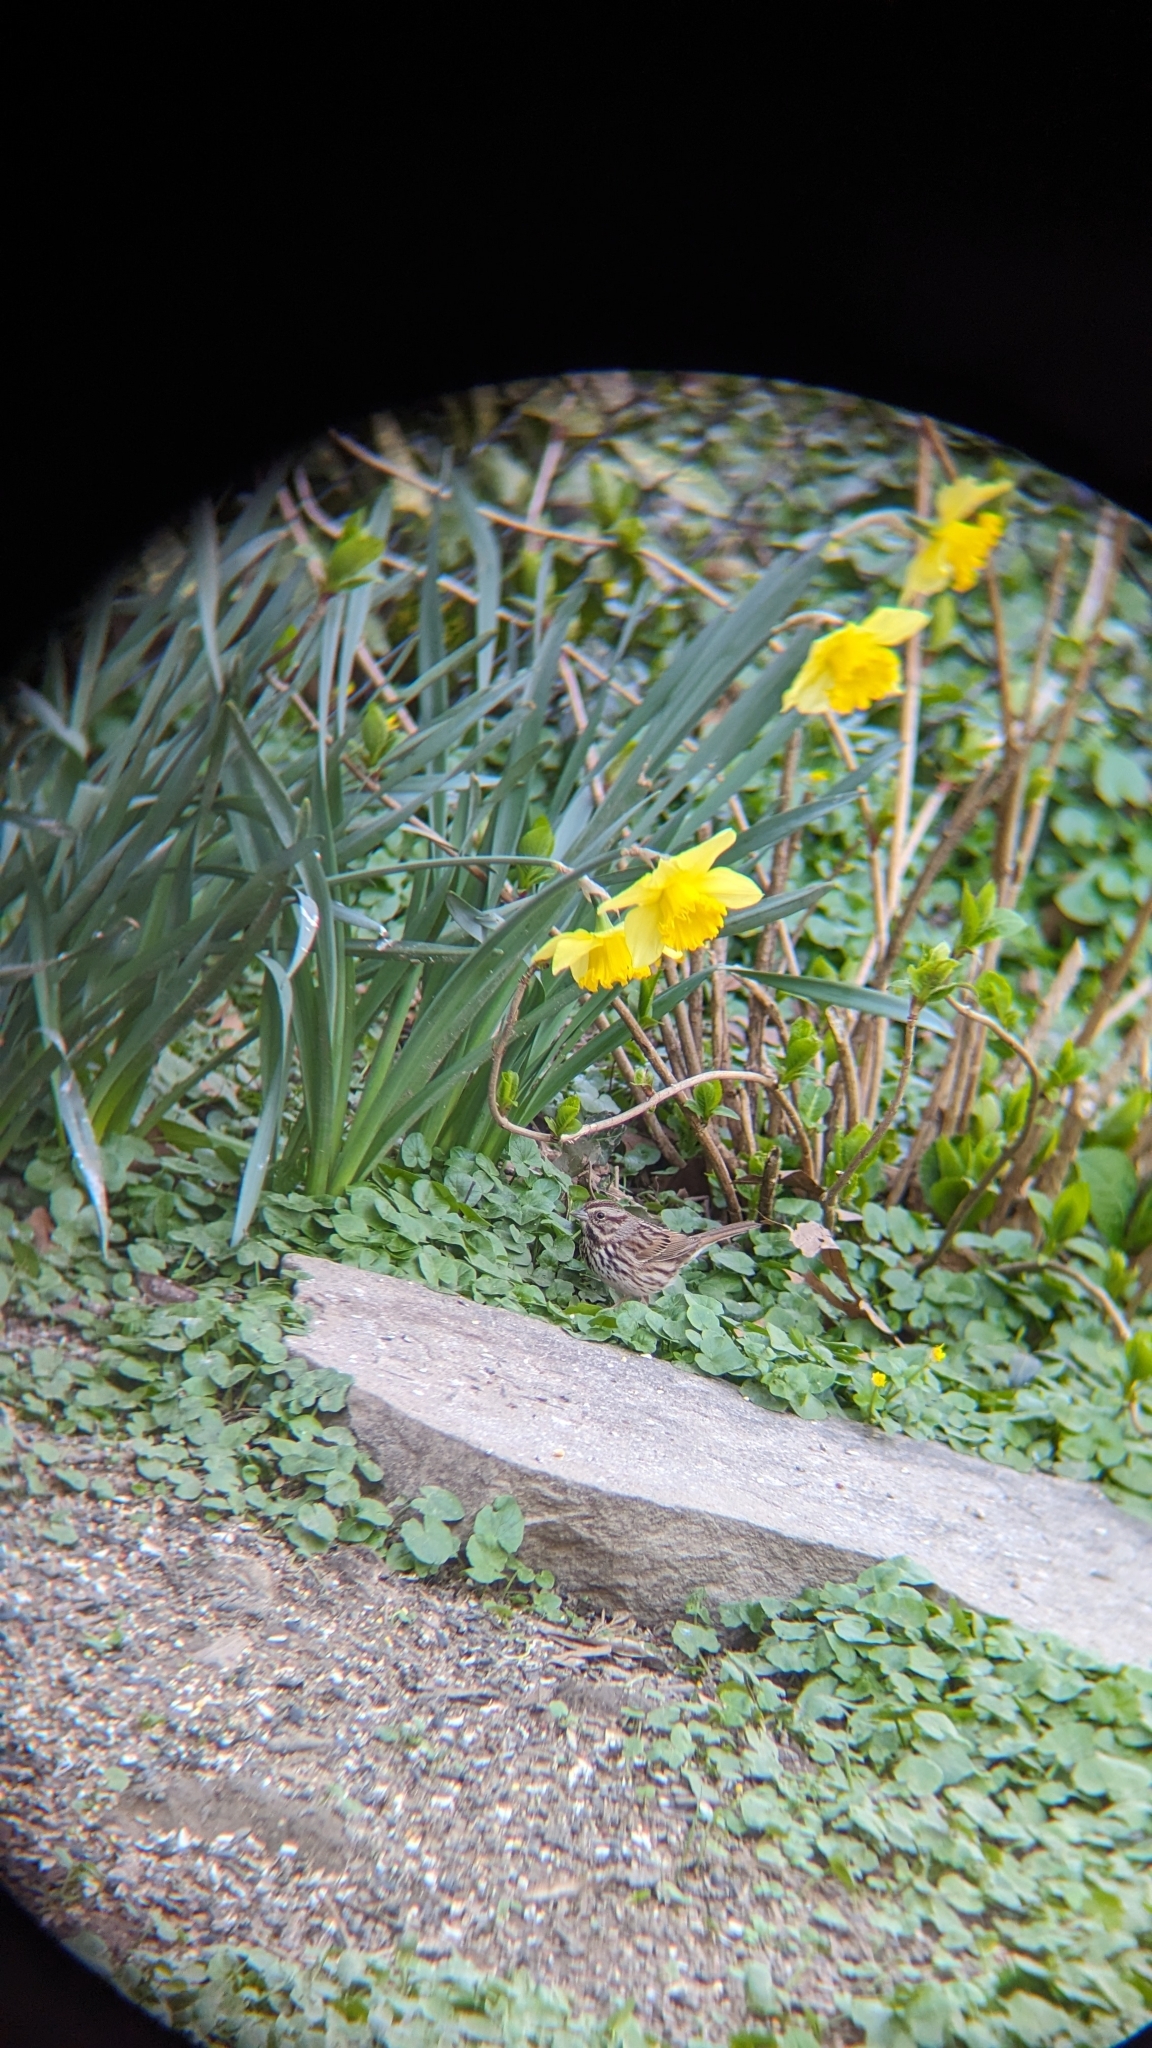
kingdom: Animalia
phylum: Chordata
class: Aves
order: Passeriformes
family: Passerellidae
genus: Melospiza
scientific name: Melospiza melodia
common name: Song sparrow
